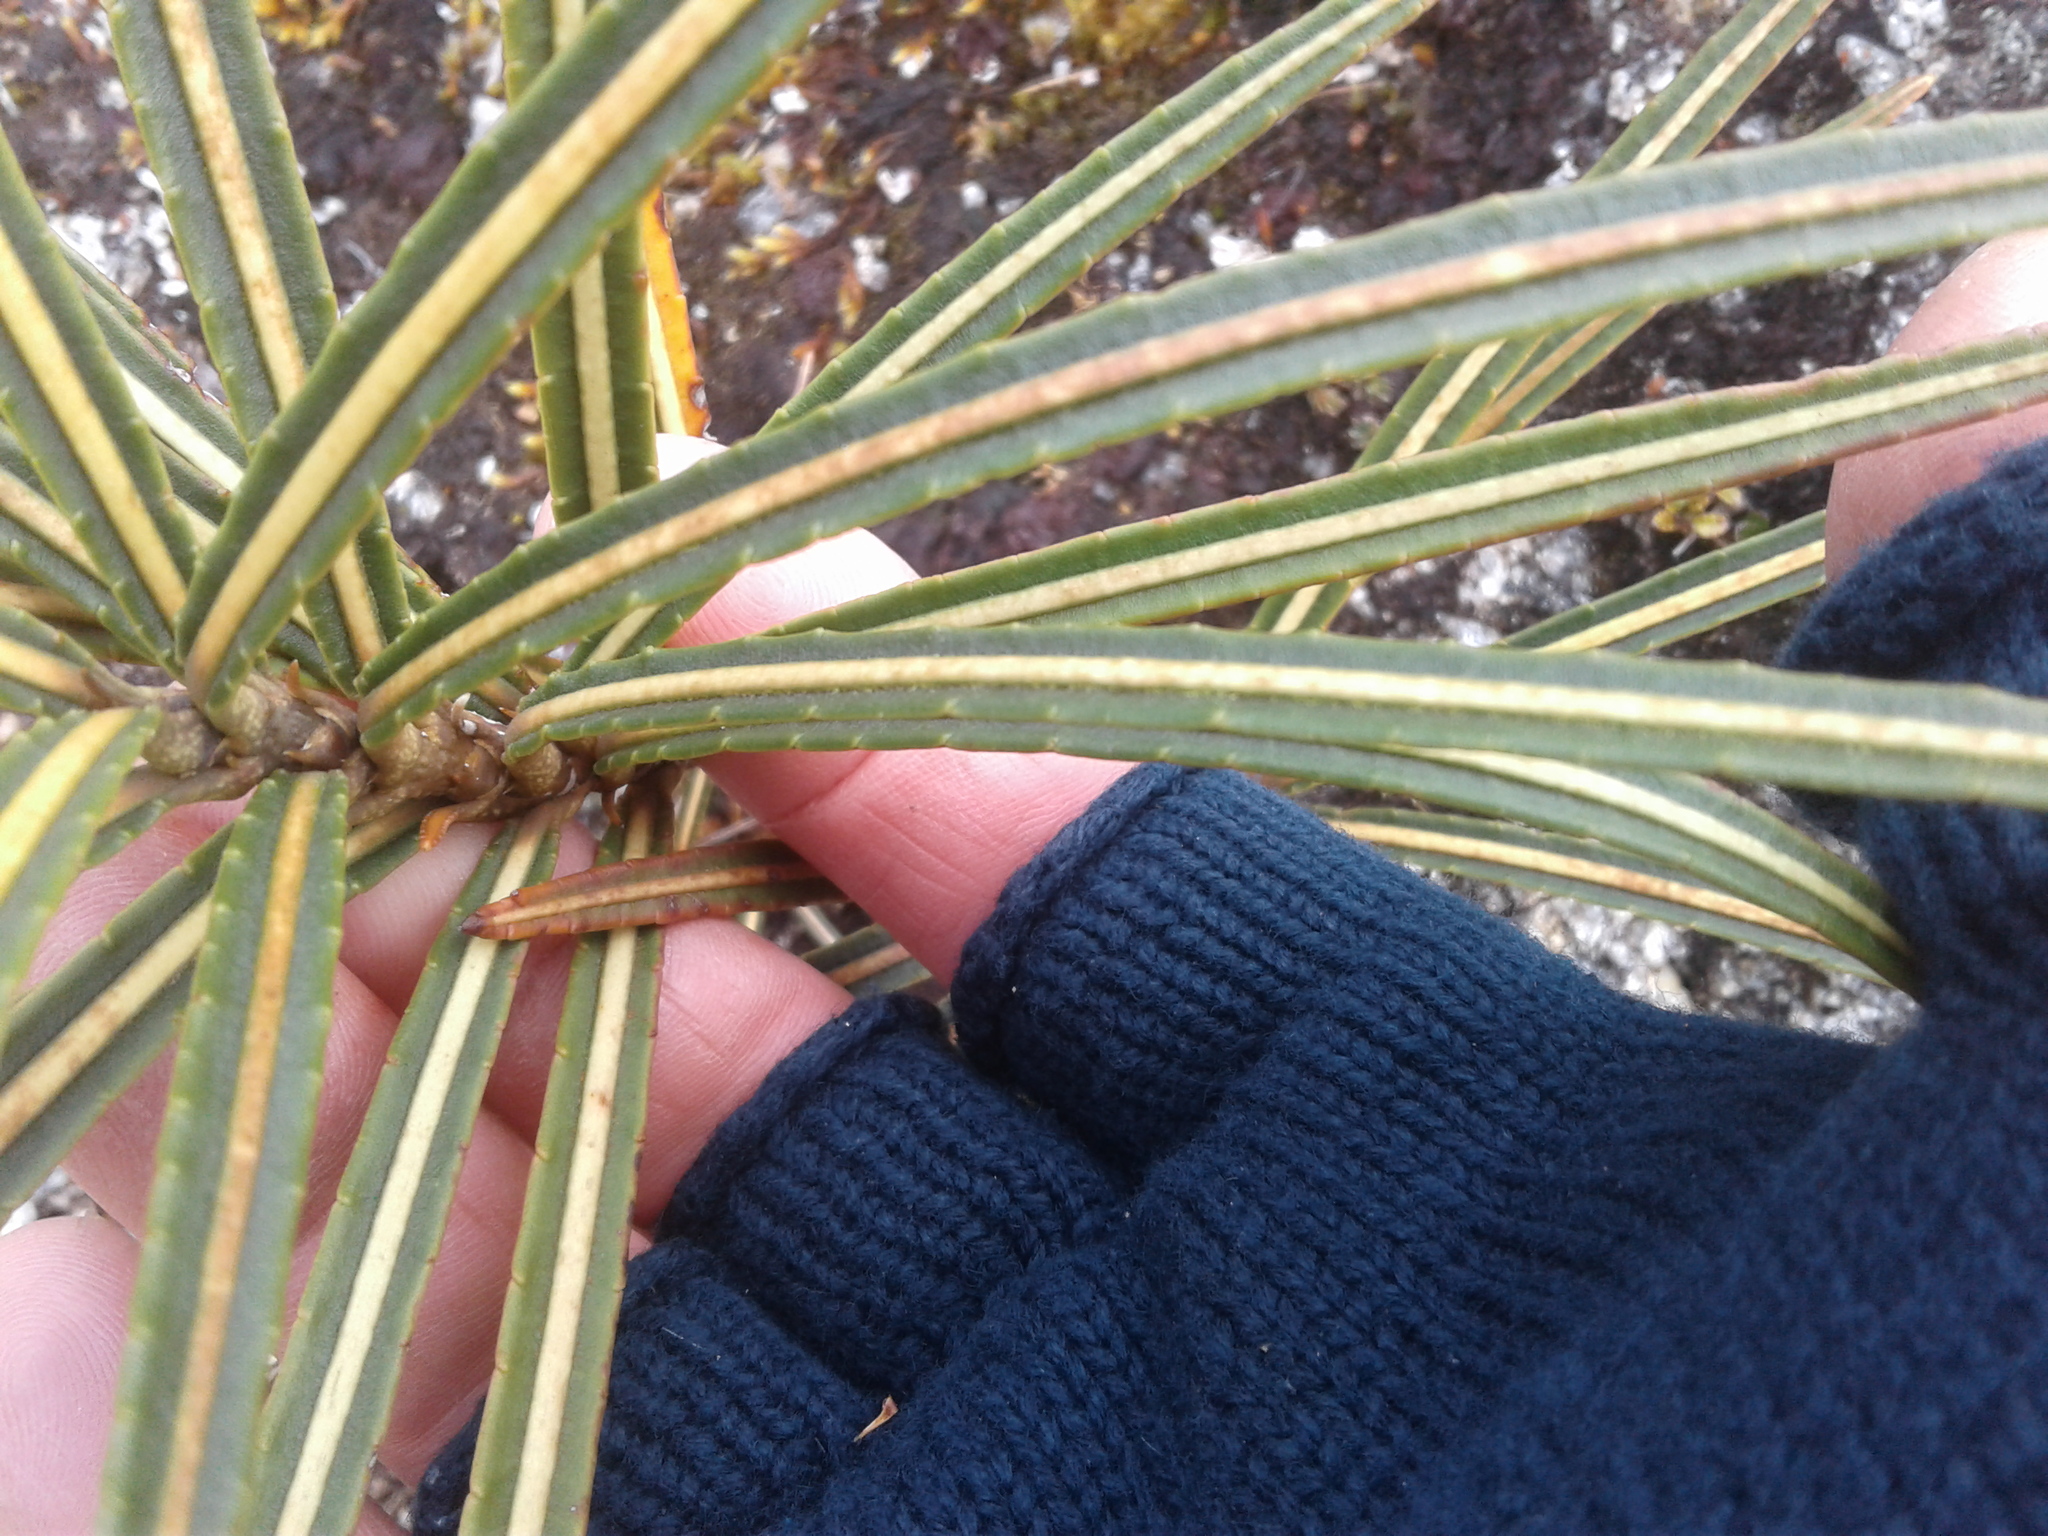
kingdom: Plantae
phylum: Tracheophyta
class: Magnoliopsida
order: Apiales
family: Araliaceae
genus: Pseudopanax
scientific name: Pseudopanax linearis
